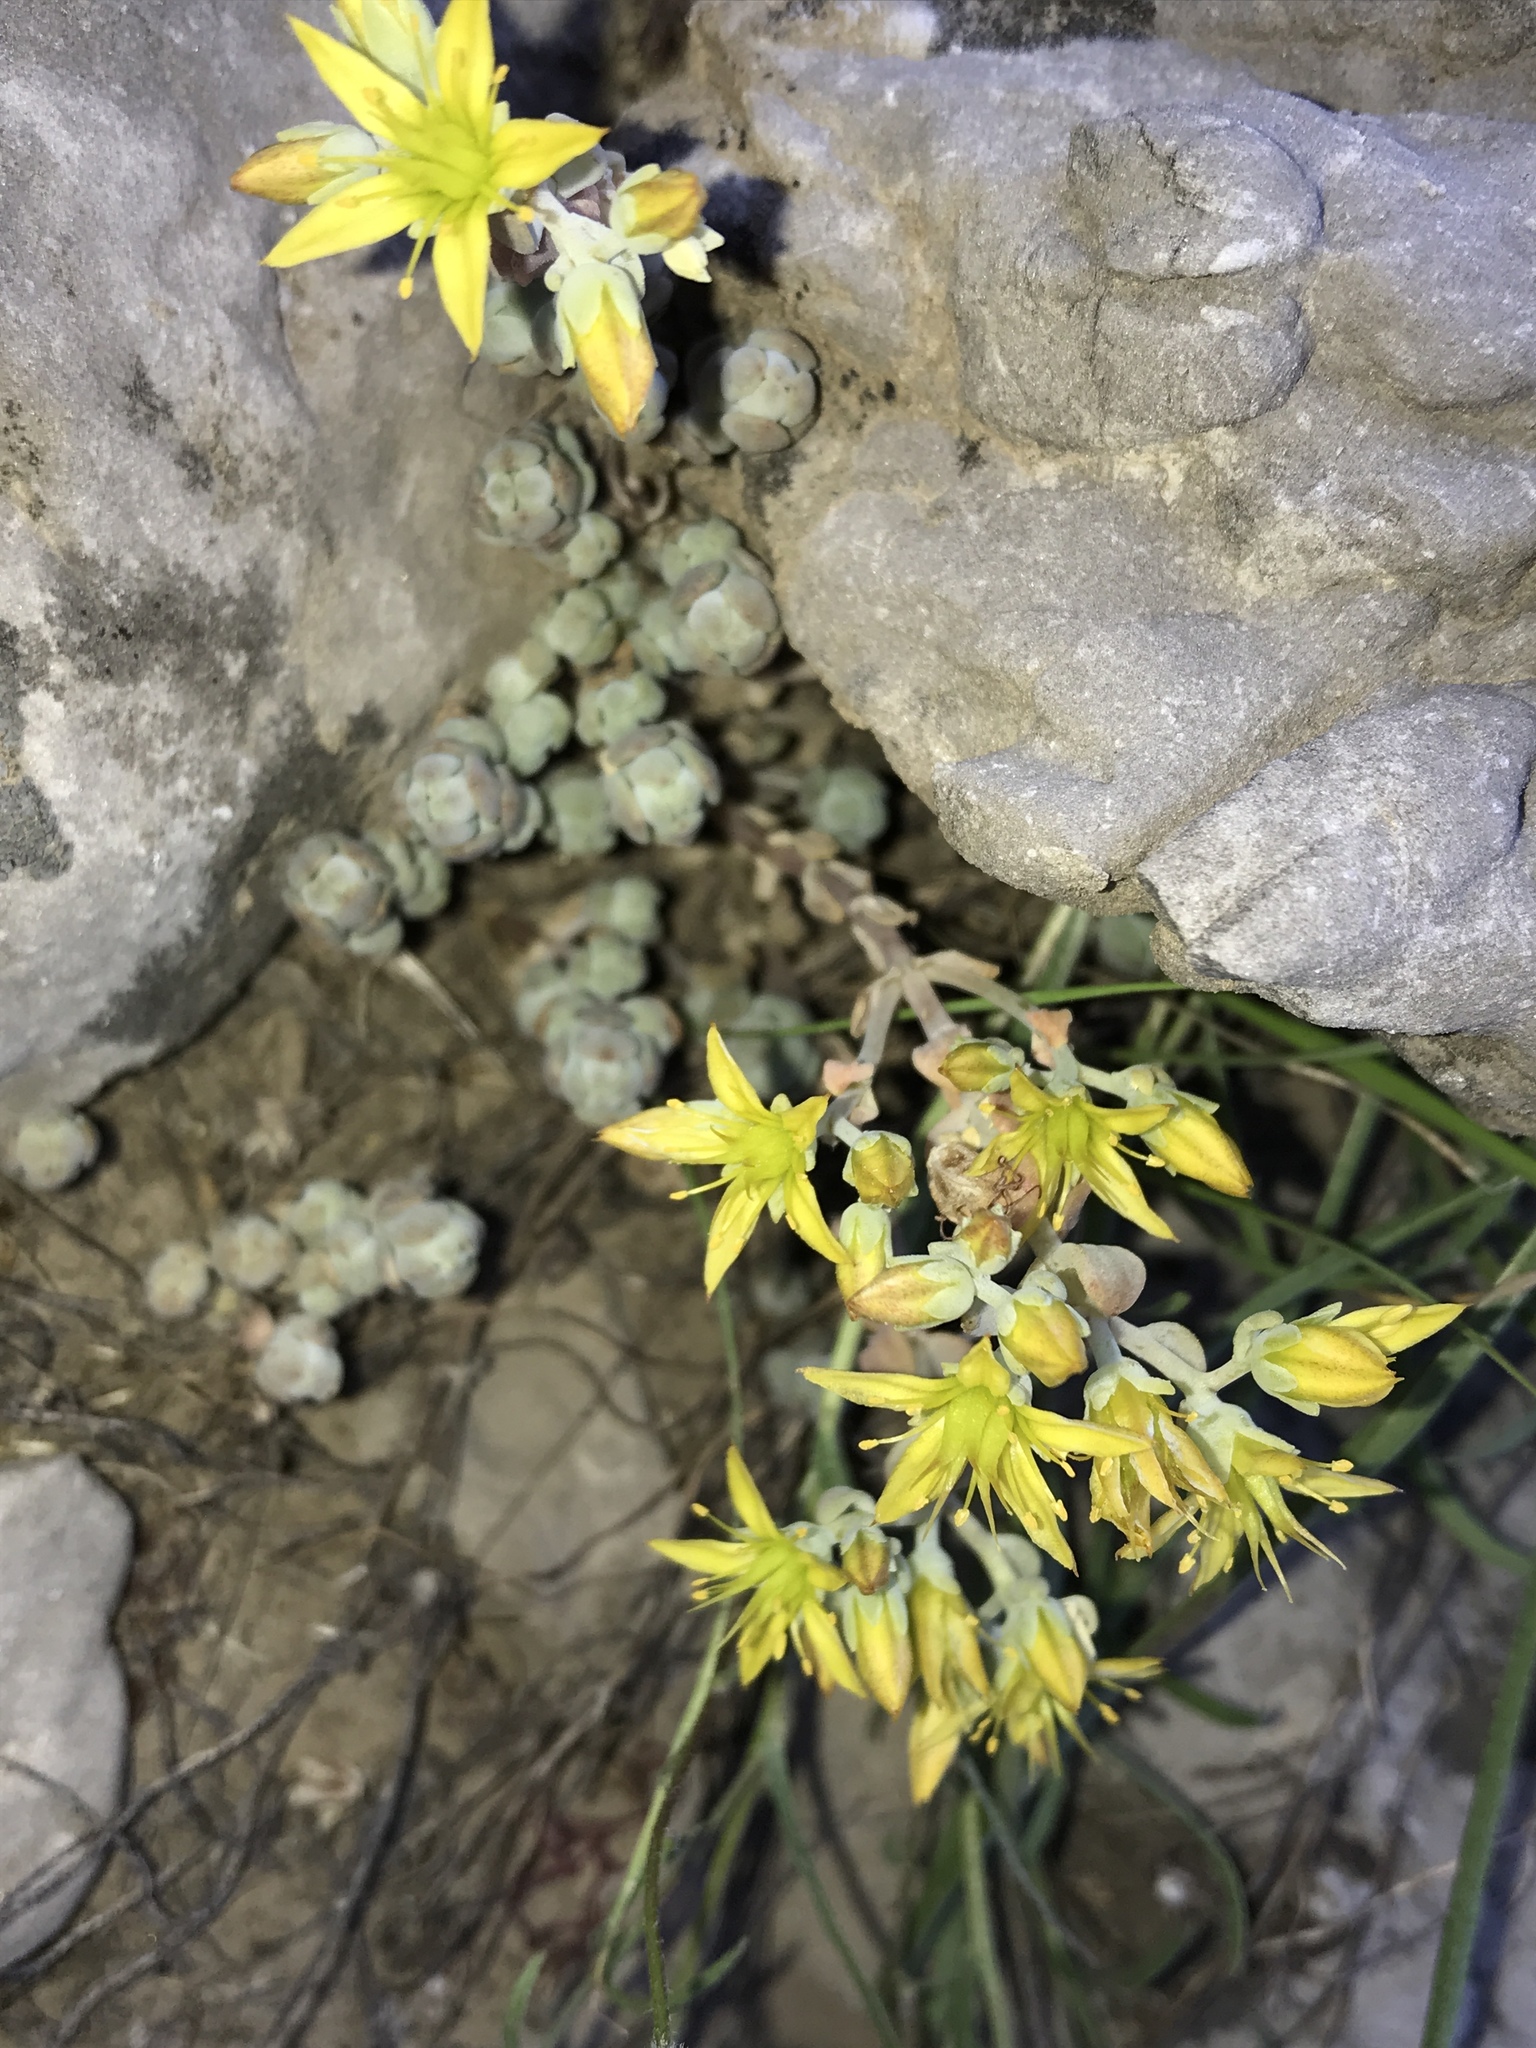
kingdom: Plantae
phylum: Tracheophyta
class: Magnoliopsida
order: Saxifragales
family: Crassulaceae
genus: Sedum
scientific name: Sedum debile
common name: Weak-stem stonecrop
